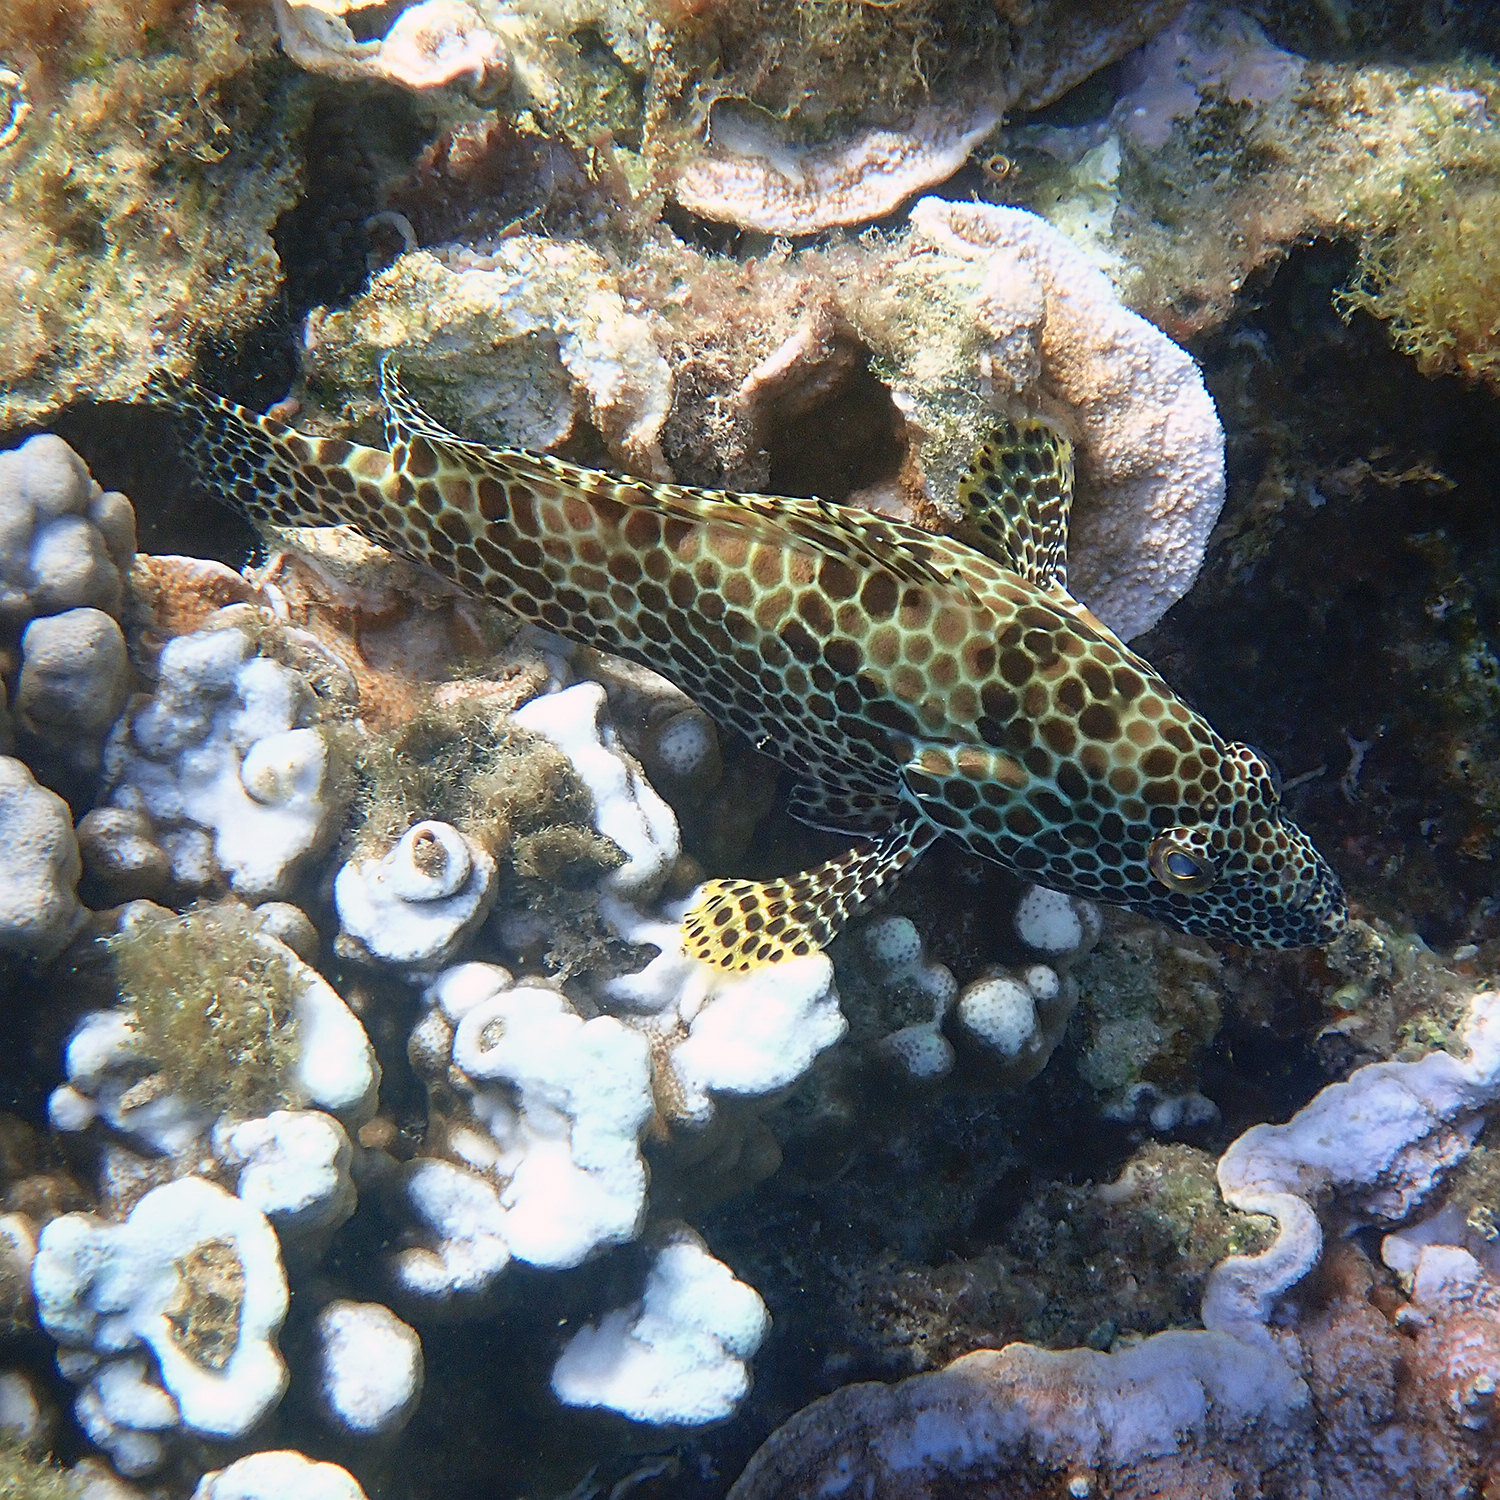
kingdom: Animalia
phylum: Chordata
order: Perciformes
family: Serranidae
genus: Epinephelus
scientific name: Epinephelus merra
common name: Honeycomb grouper
